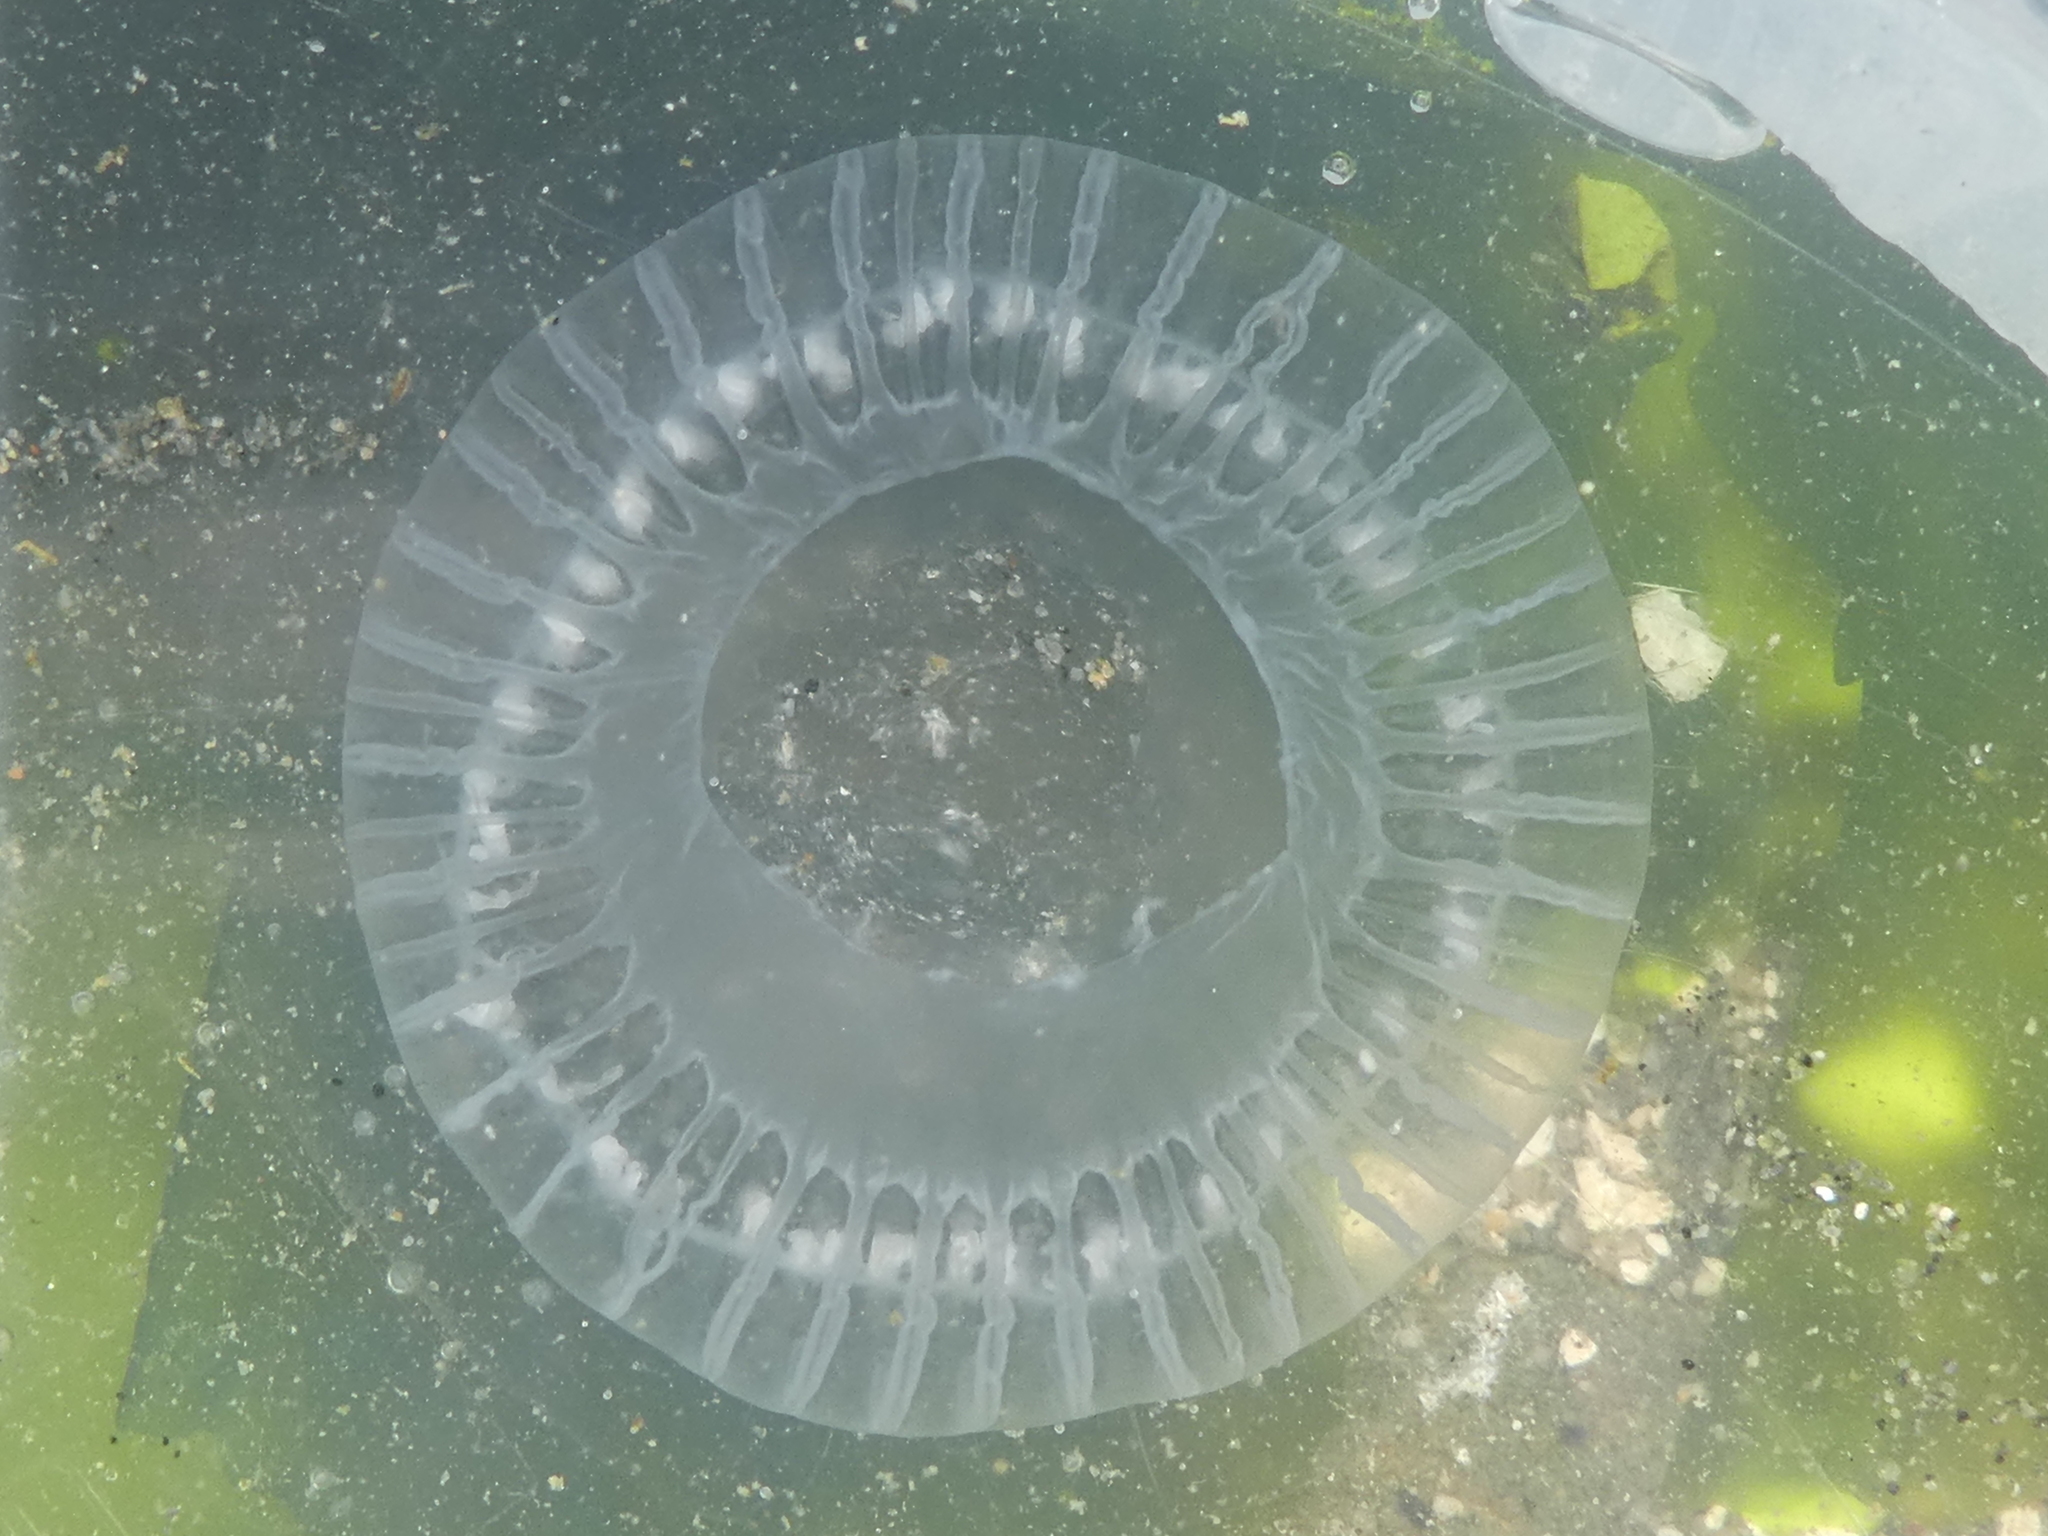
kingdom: Animalia
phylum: Cnidaria
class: Hydrozoa
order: Leptothecata
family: Aequoreidae
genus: Aequorea
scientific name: Aequorea victoria
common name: Water jellyfish
